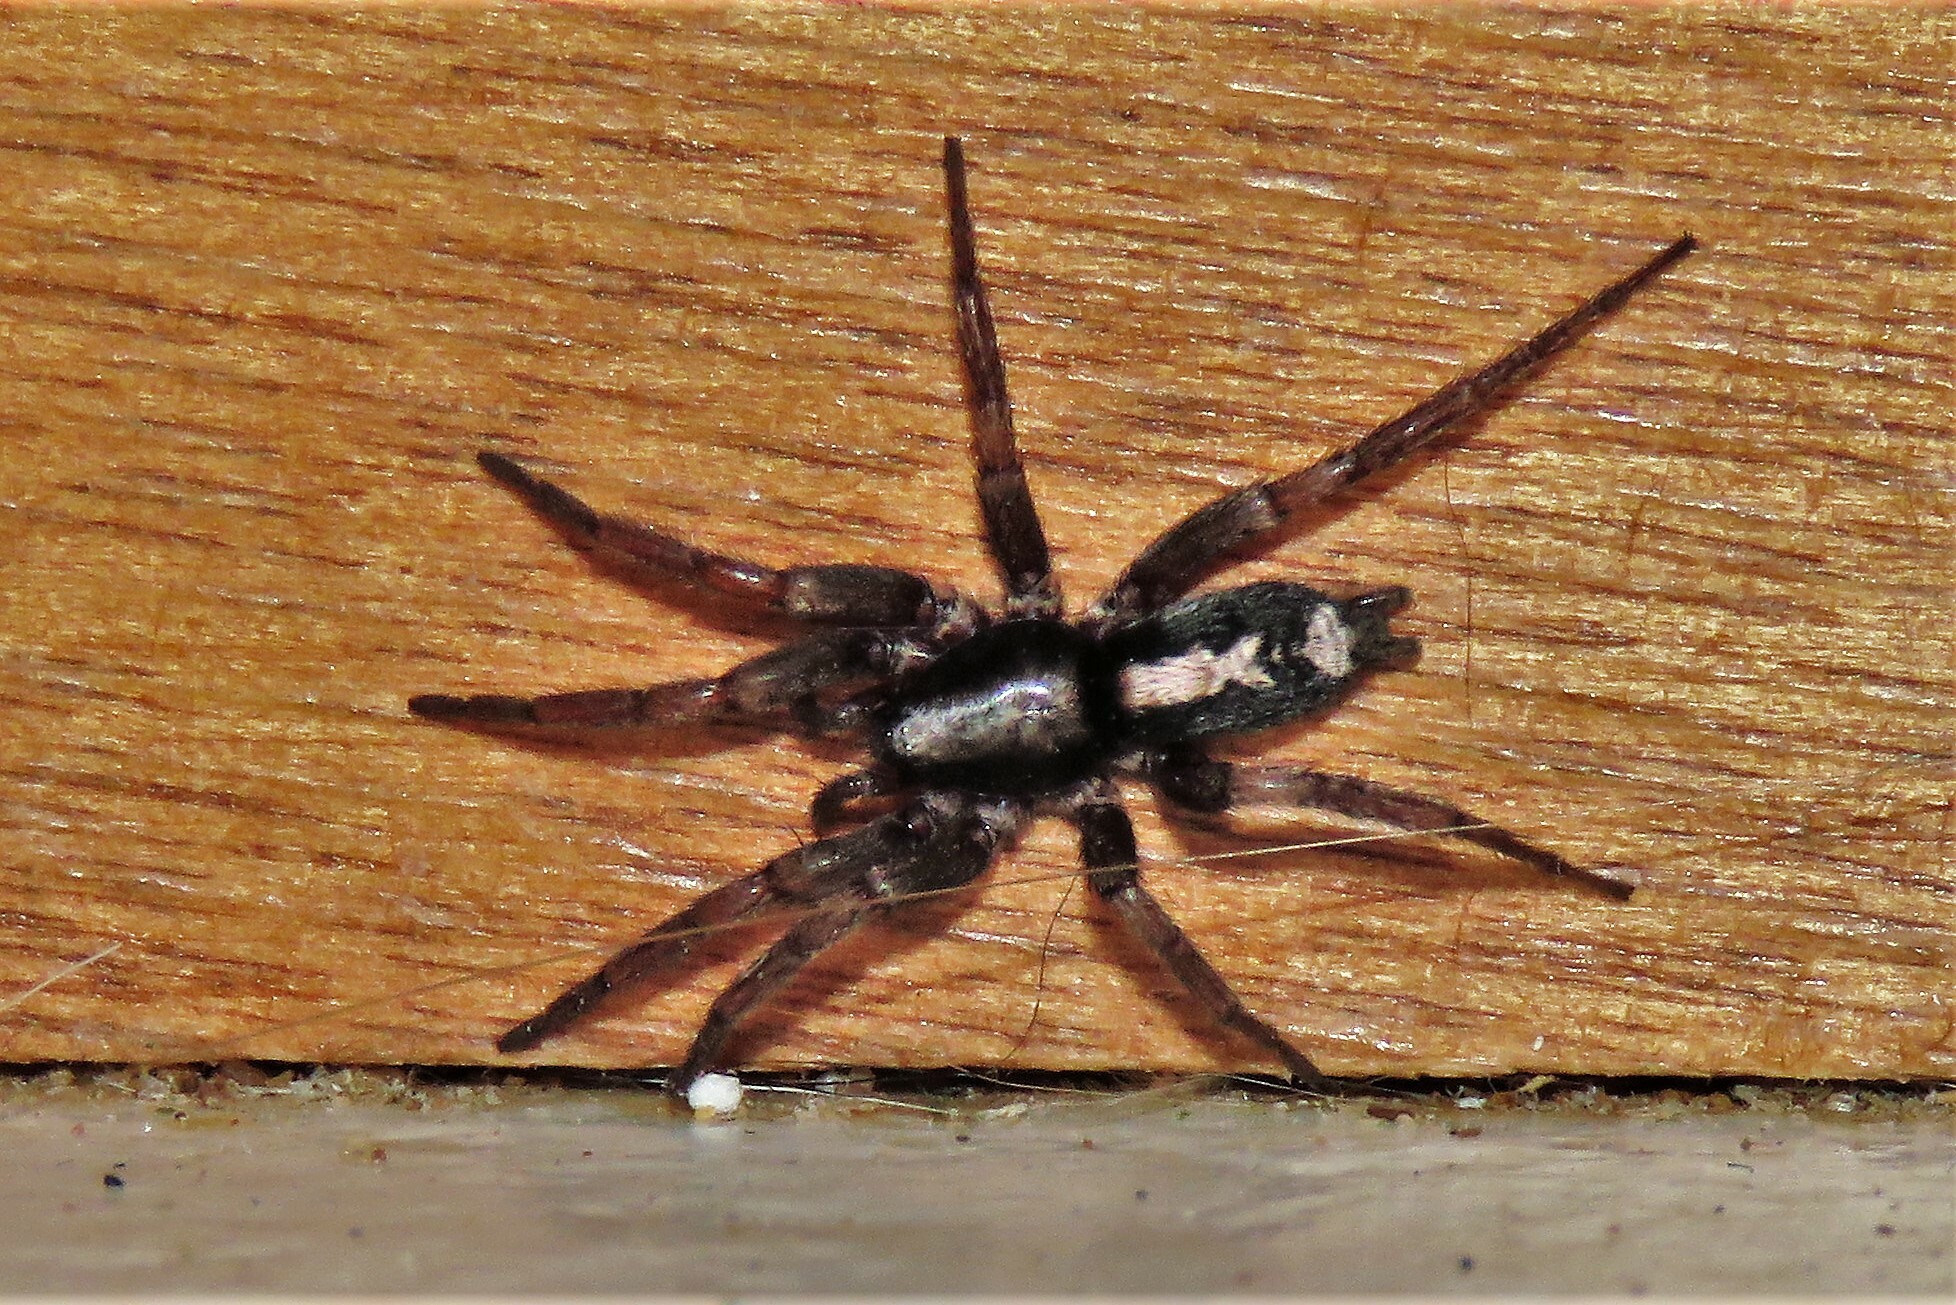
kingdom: Animalia
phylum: Arthropoda
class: Arachnida
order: Araneae
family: Gnaphosidae
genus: Herpyllus
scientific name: Herpyllus ecclesiasticus
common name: Eastern parson spider
